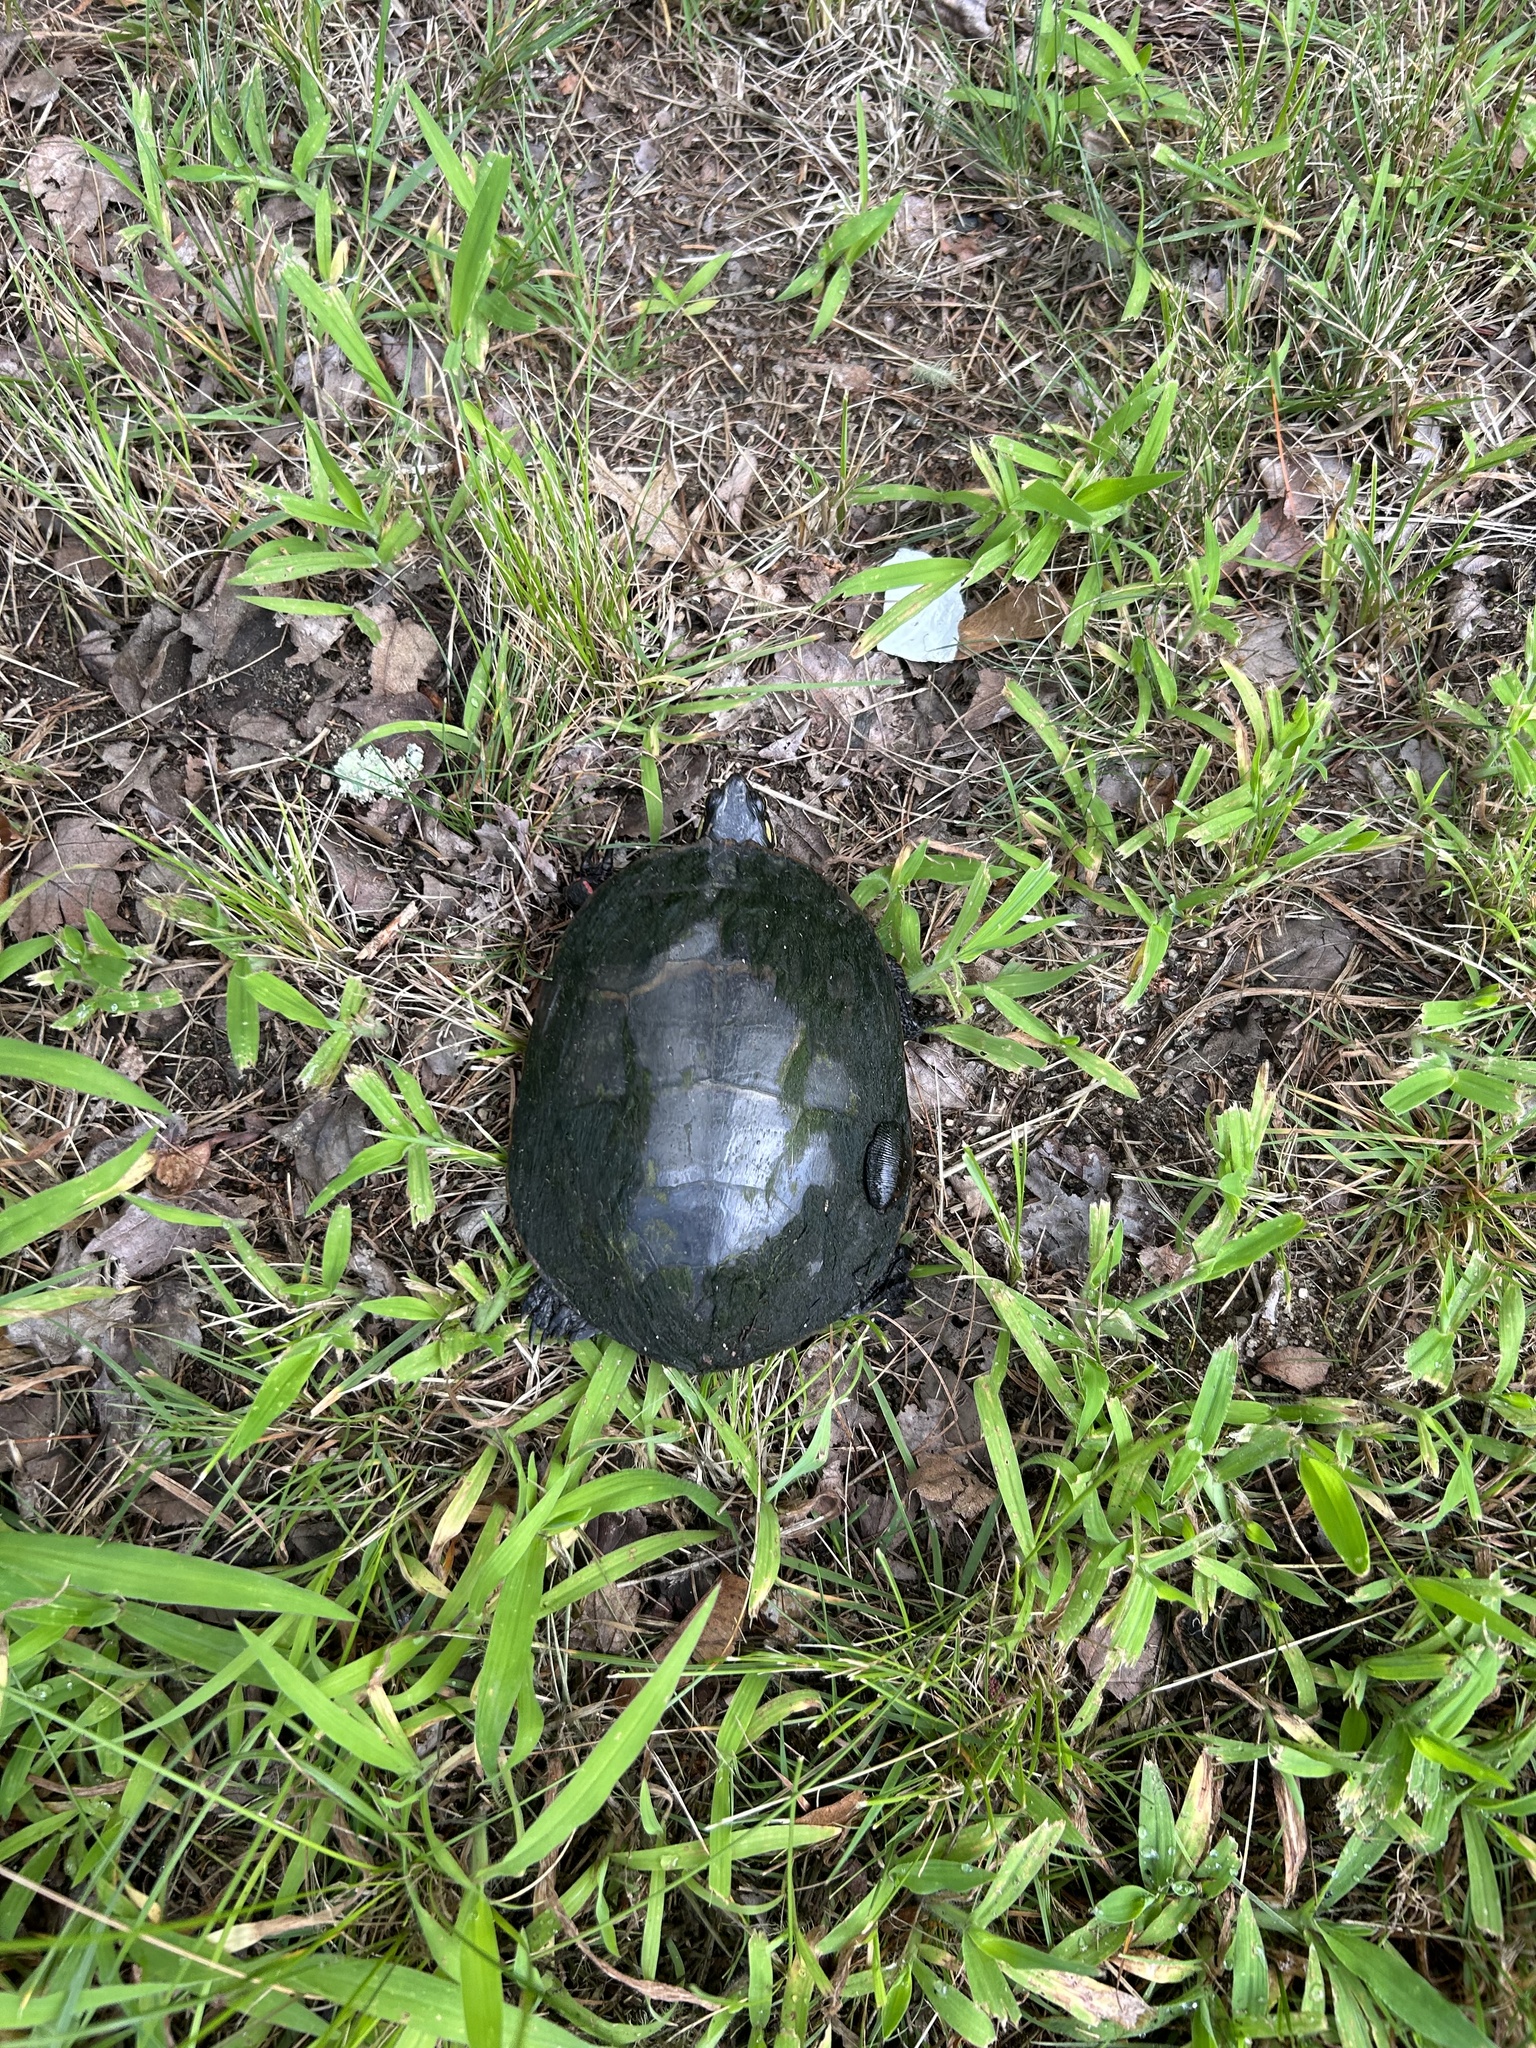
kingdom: Animalia
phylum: Chordata
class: Testudines
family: Emydidae
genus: Chrysemys
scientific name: Chrysemys picta
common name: Painted turtle
